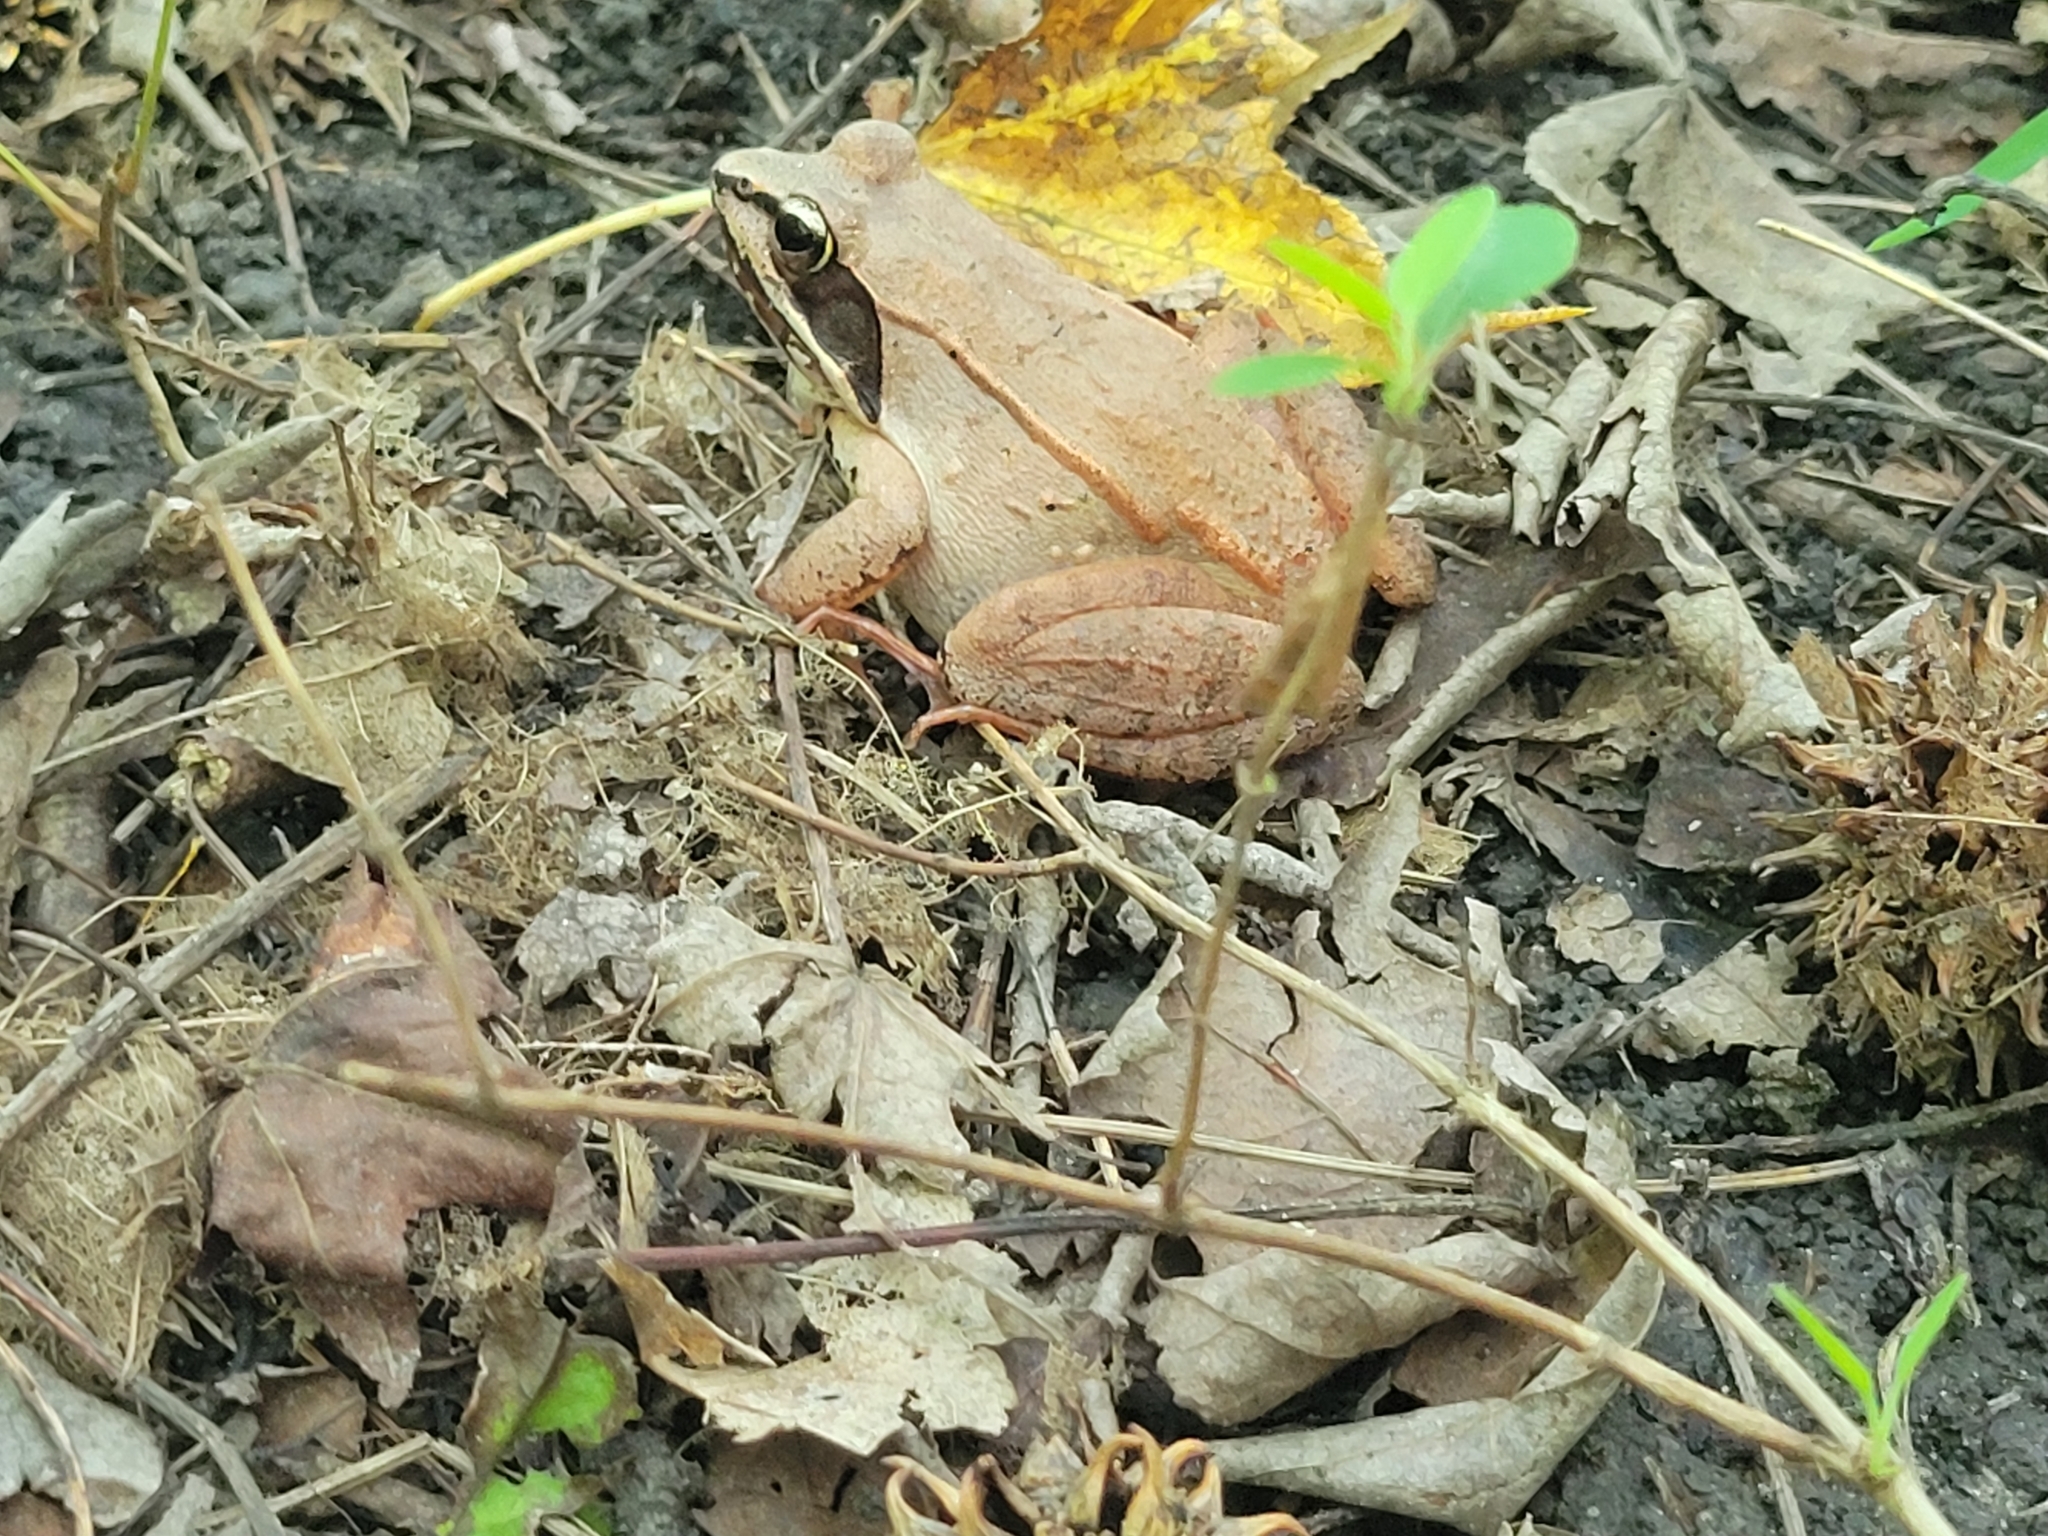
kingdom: Animalia
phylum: Chordata
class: Amphibia
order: Anura
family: Ranidae
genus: Lithobates
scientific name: Lithobates sylvaticus
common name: Wood frog
